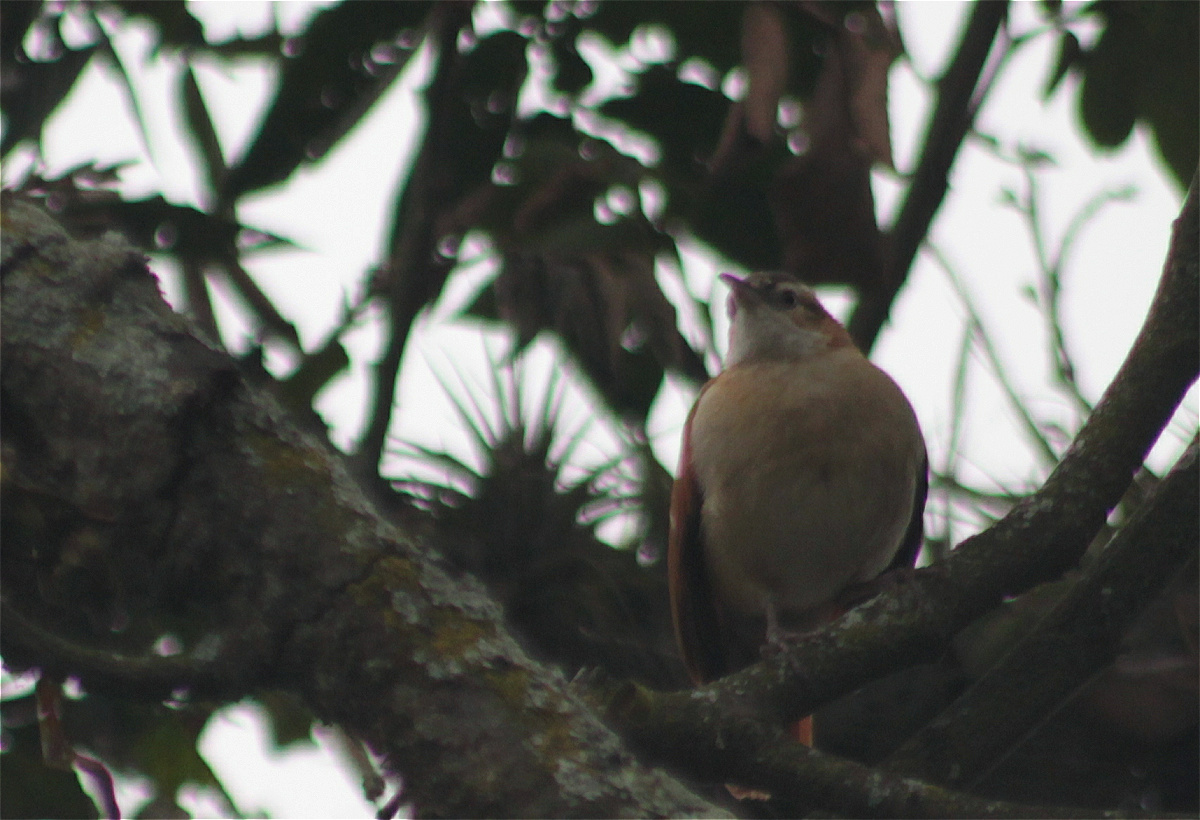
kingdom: Animalia
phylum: Chordata
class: Aves
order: Passeriformes
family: Furnariidae
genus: Furnarius
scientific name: Furnarius leucopus
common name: Pale-legged hornero
